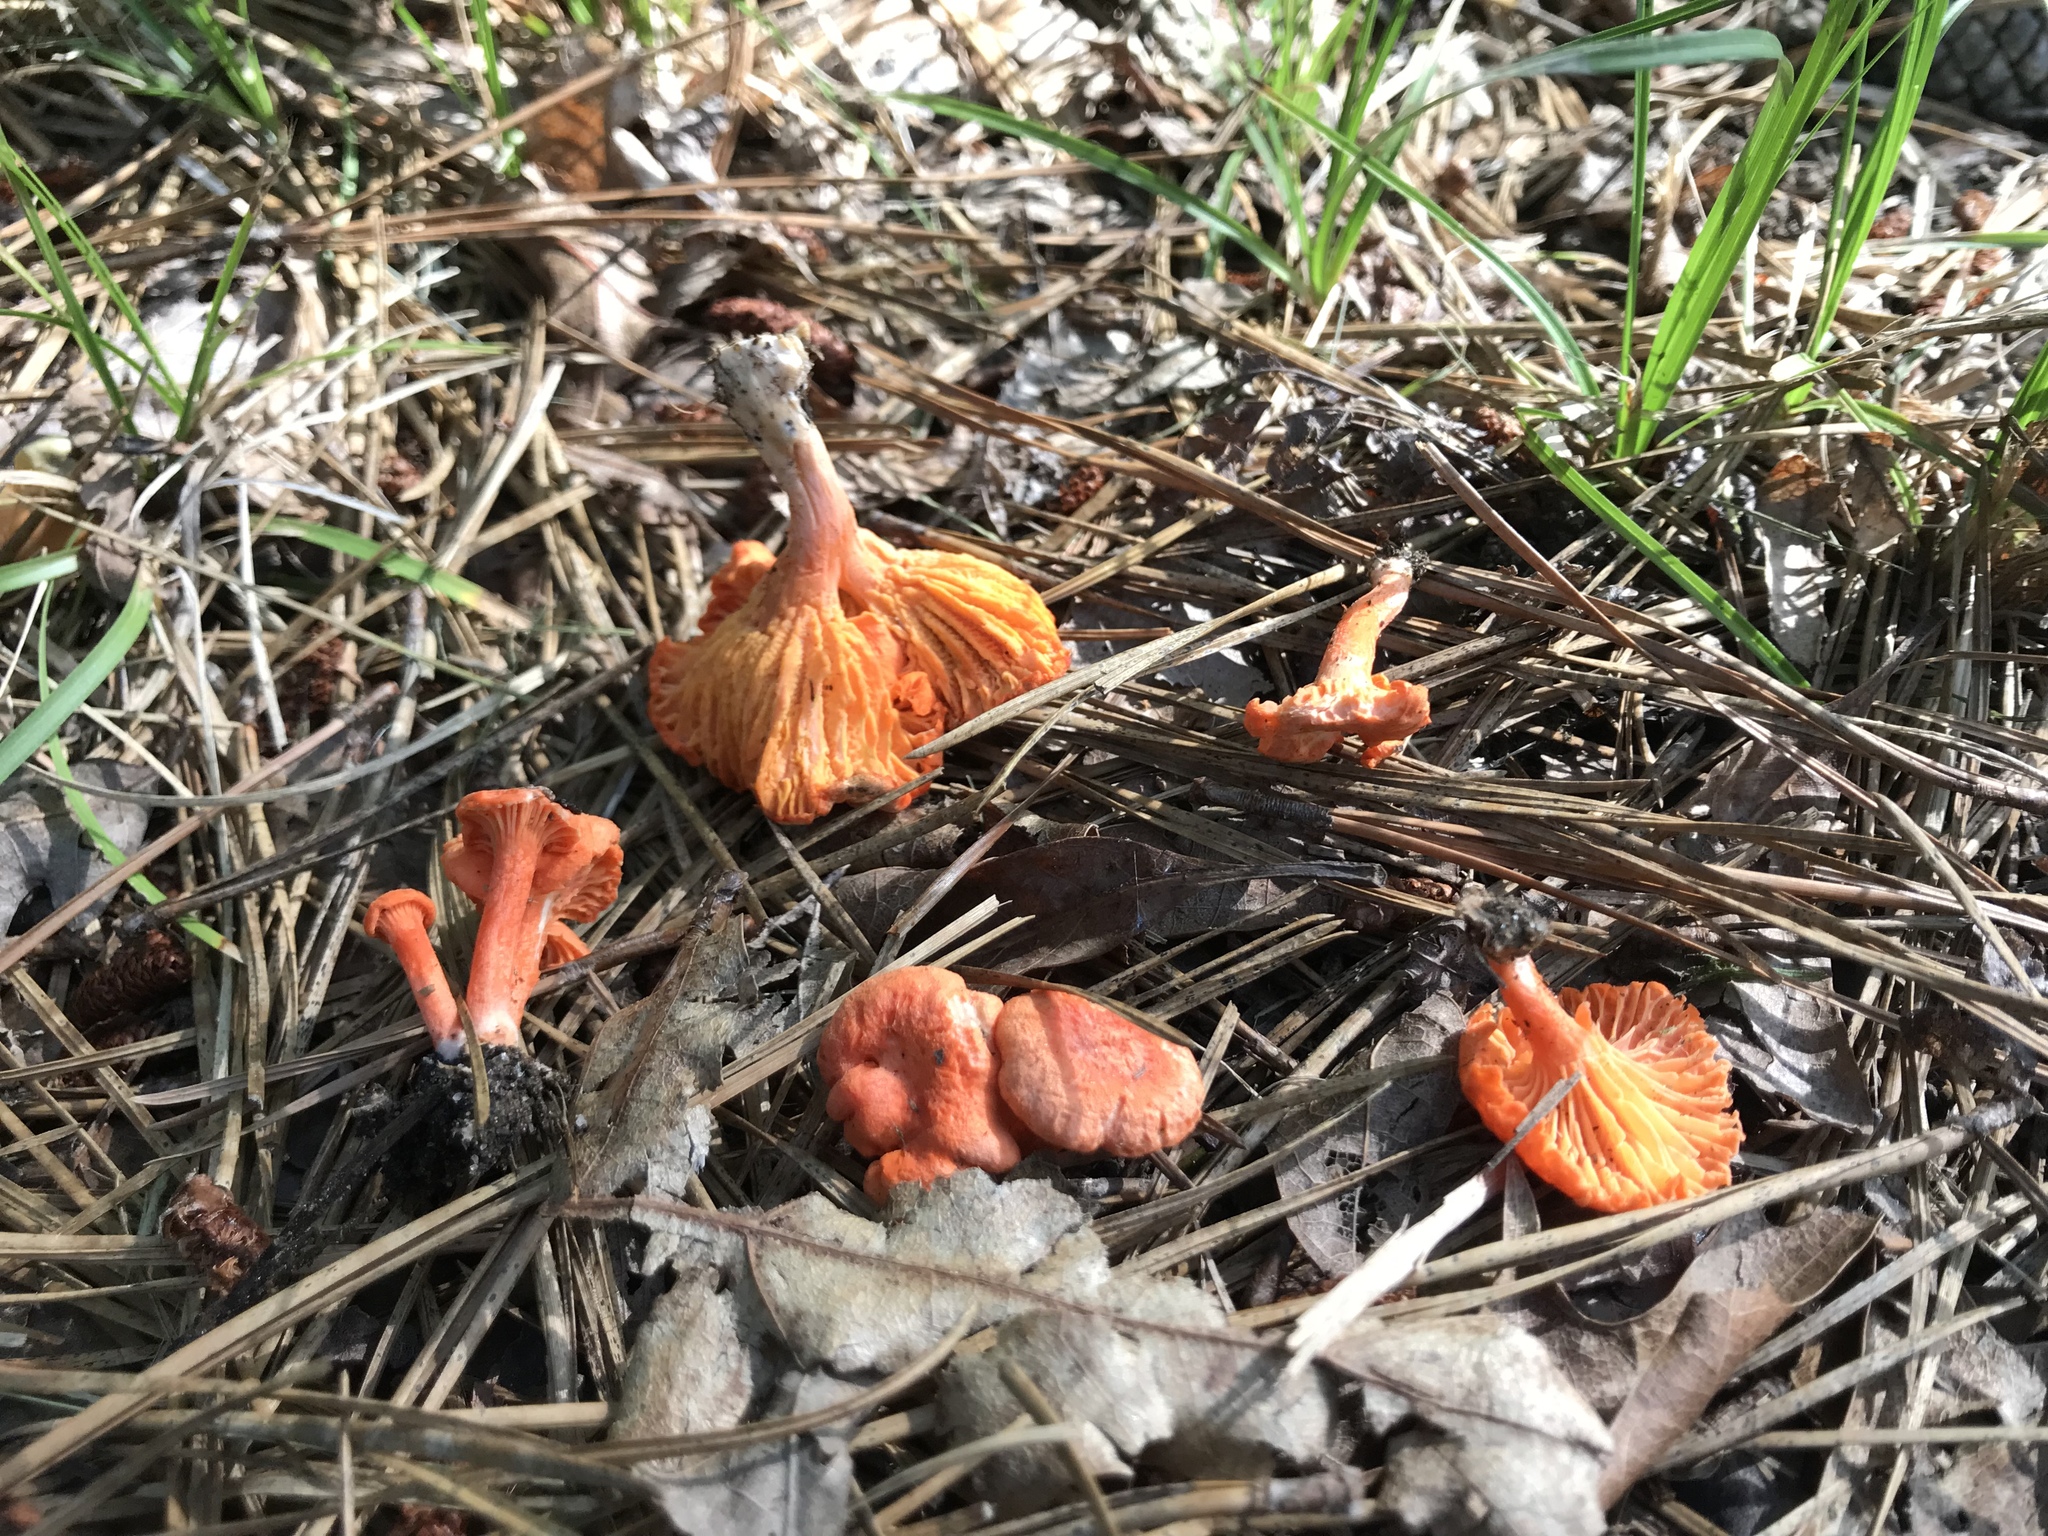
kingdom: Fungi
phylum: Basidiomycota
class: Agaricomycetes
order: Cantharellales
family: Hydnaceae
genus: Cantharellus
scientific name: Cantharellus cinnabarinus
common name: Cinnabar chanterelle
